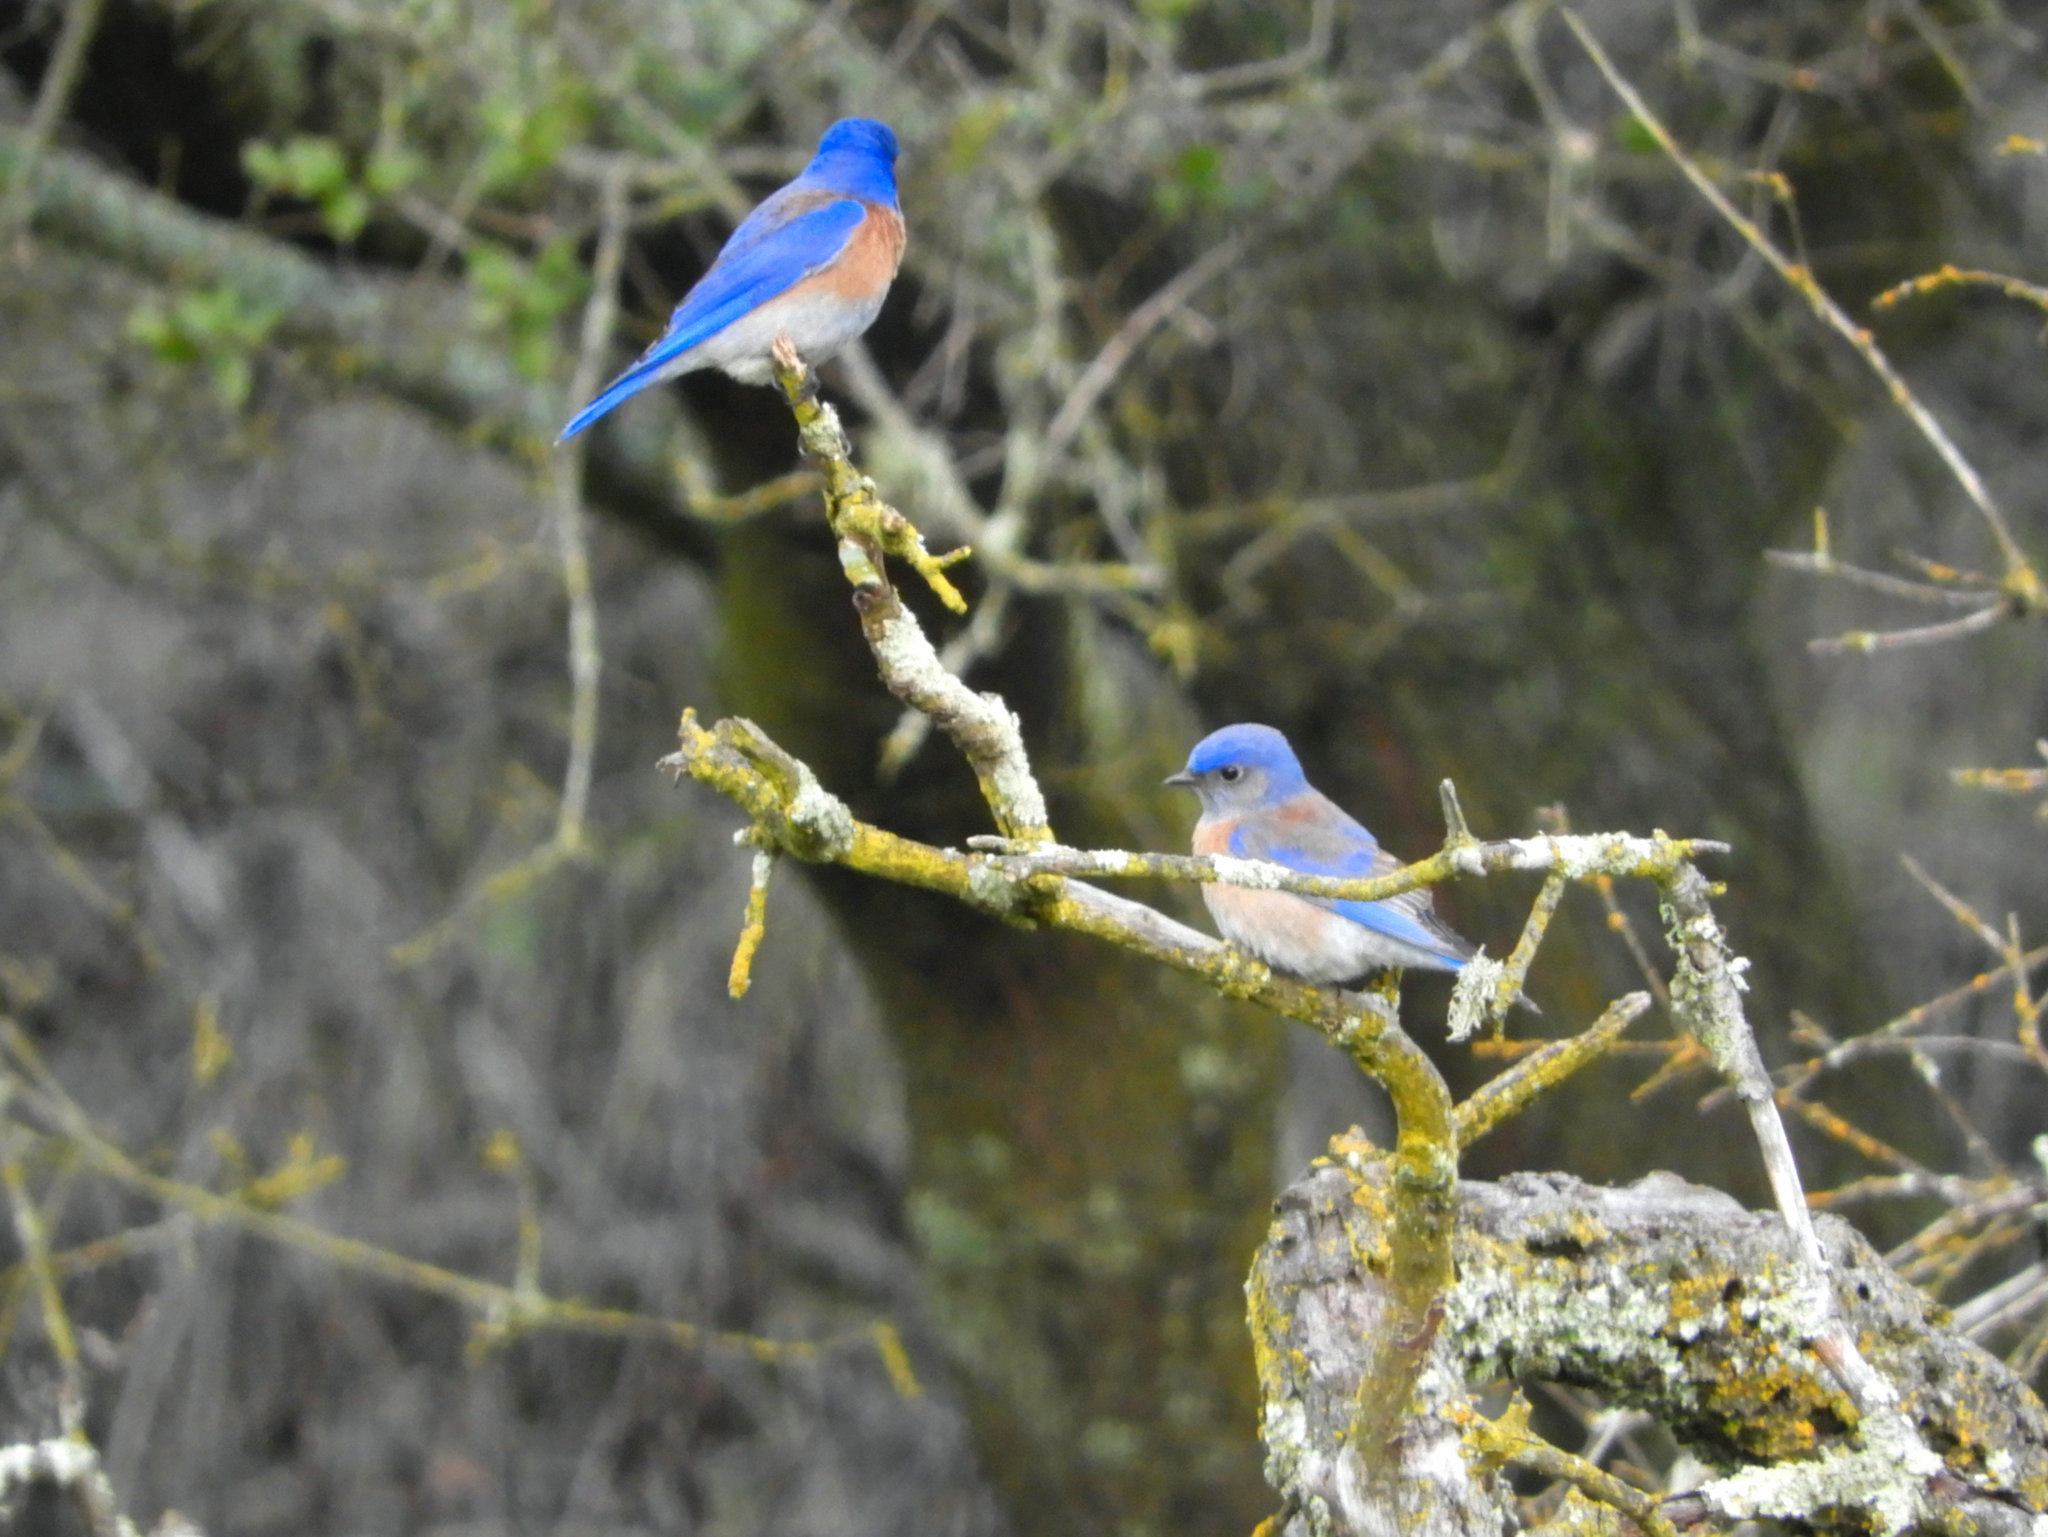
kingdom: Animalia
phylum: Chordata
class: Aves
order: Passeriformes
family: Turdidae
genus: Sialia
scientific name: Sialia mexicana
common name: Western bluebird
